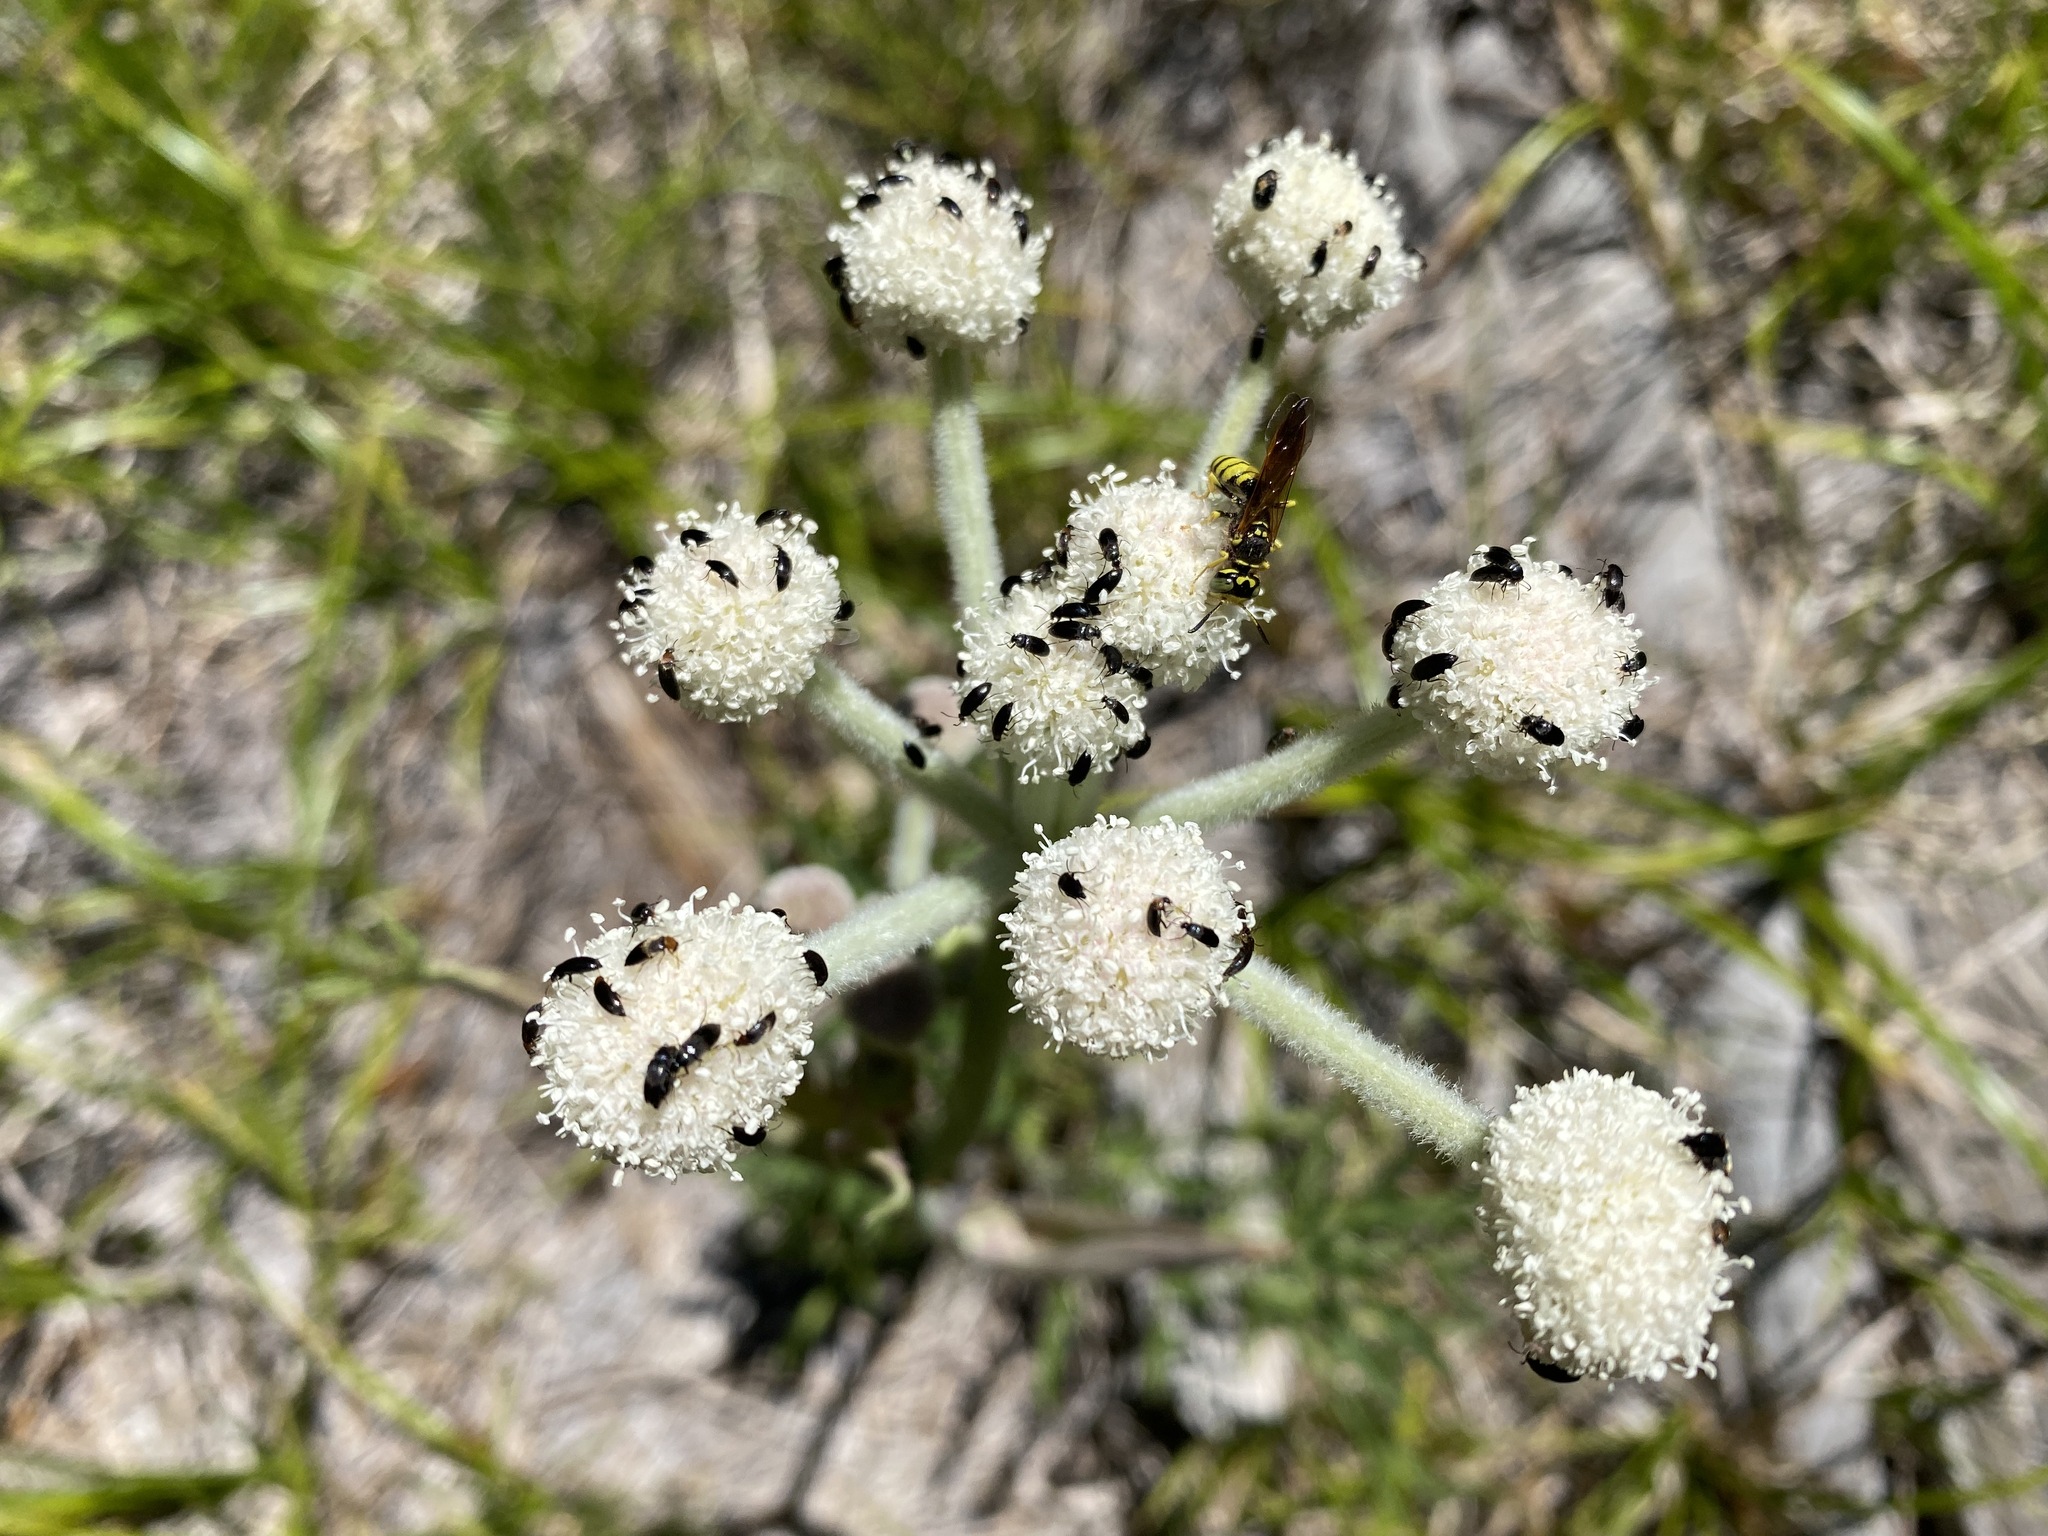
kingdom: Plantae
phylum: Tracheophyta
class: Magnoliopsida
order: Apiales
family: Apiaceae
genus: Angelica
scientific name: Angelica capitellata
